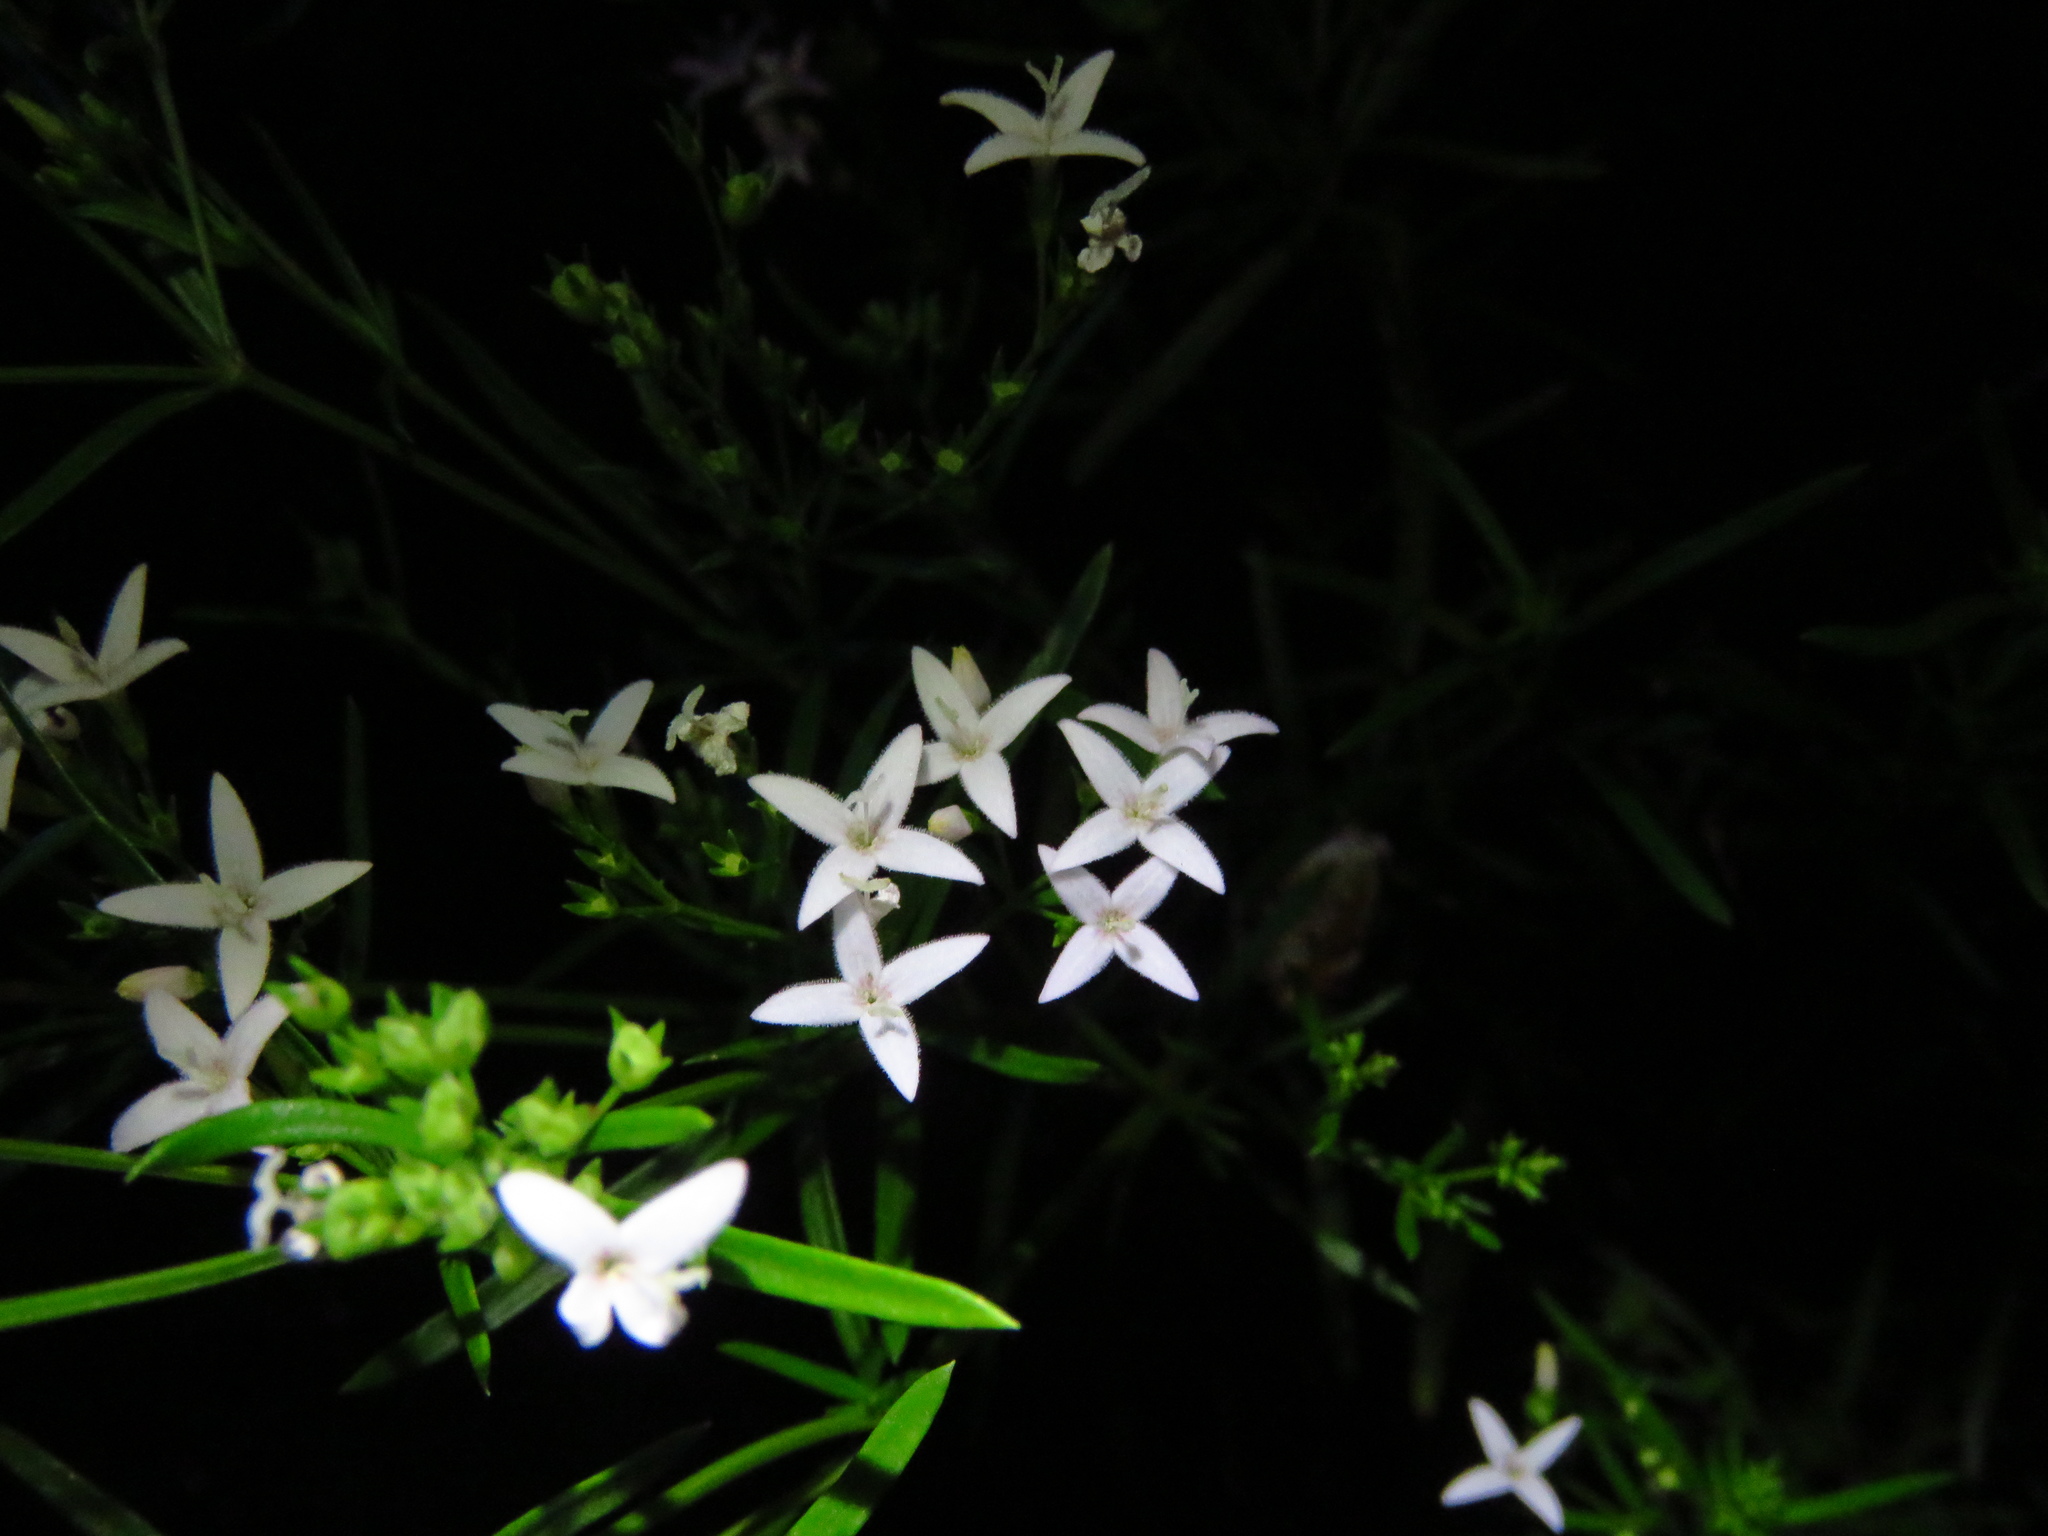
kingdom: Plantae
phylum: Tracheophyta
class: Magnoliopsida
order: Gentianales
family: Rubiaceae
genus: Stenaria
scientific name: Stenaria nigricans
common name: Diamondflowers
